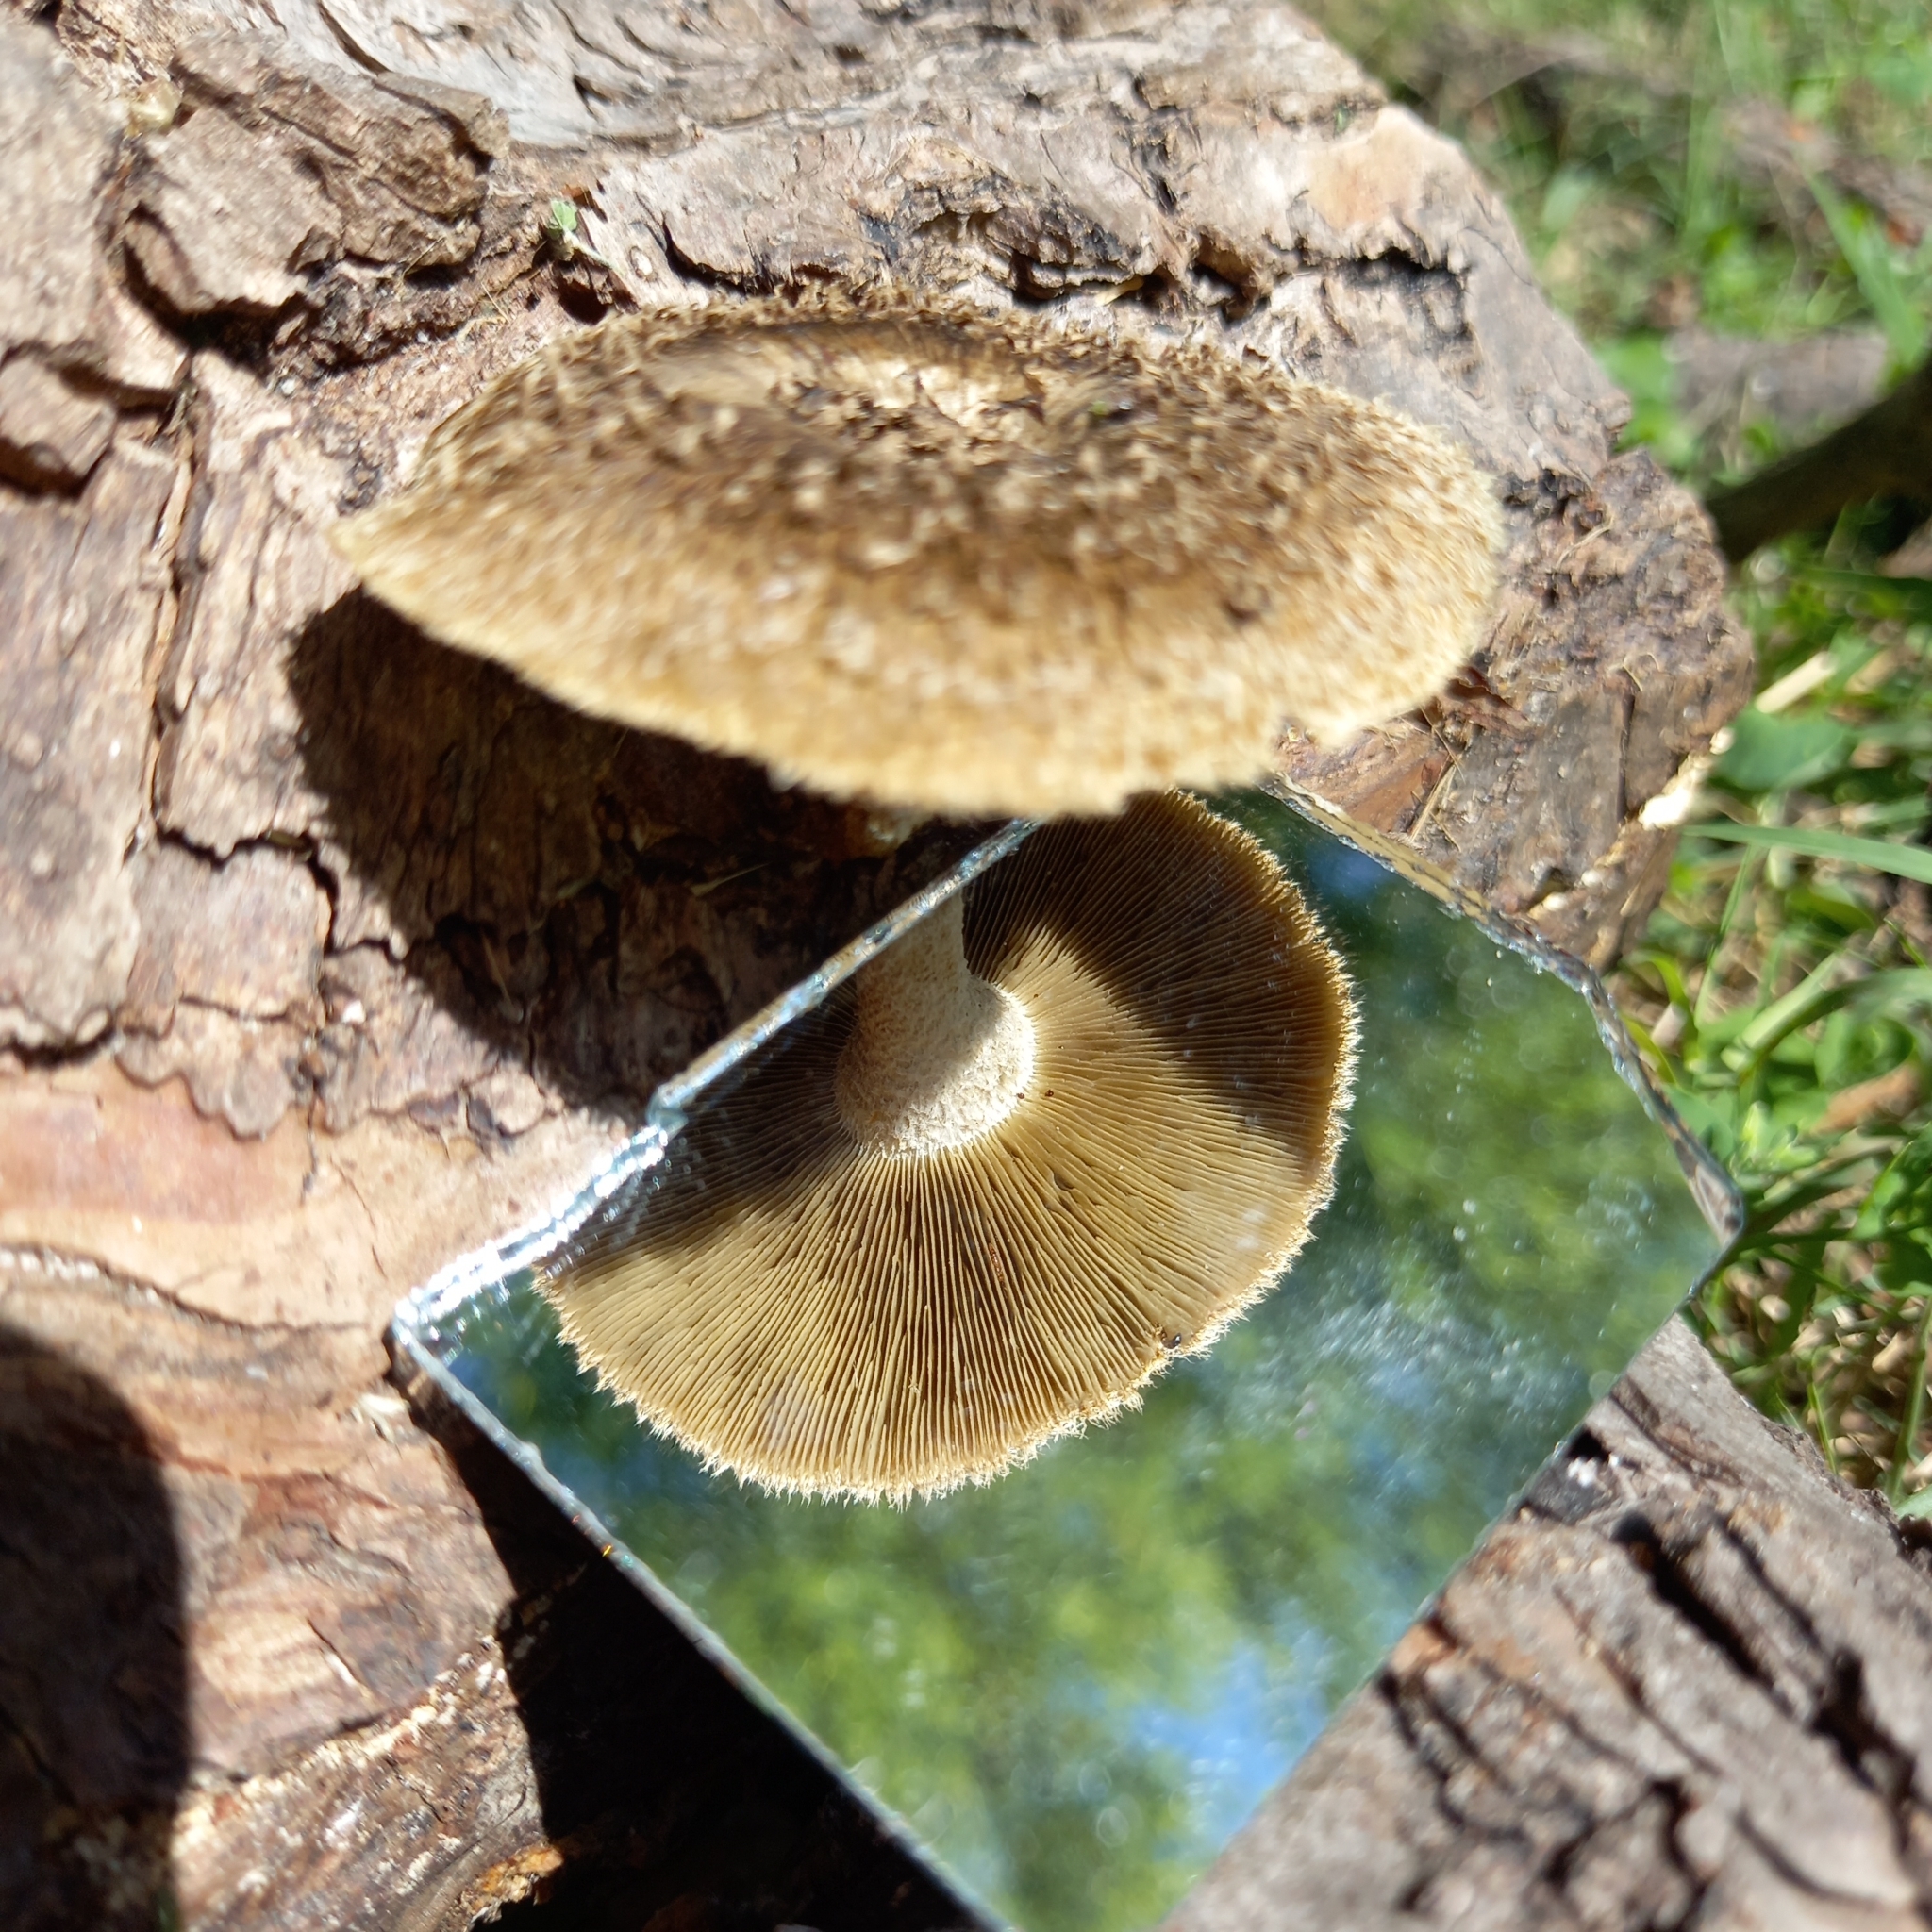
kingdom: Fungi
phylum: Basidiomycota
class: Agaricomycetes
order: Polyporales
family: Polyporaceae
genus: Lentinus
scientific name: Lentinus crinitus
